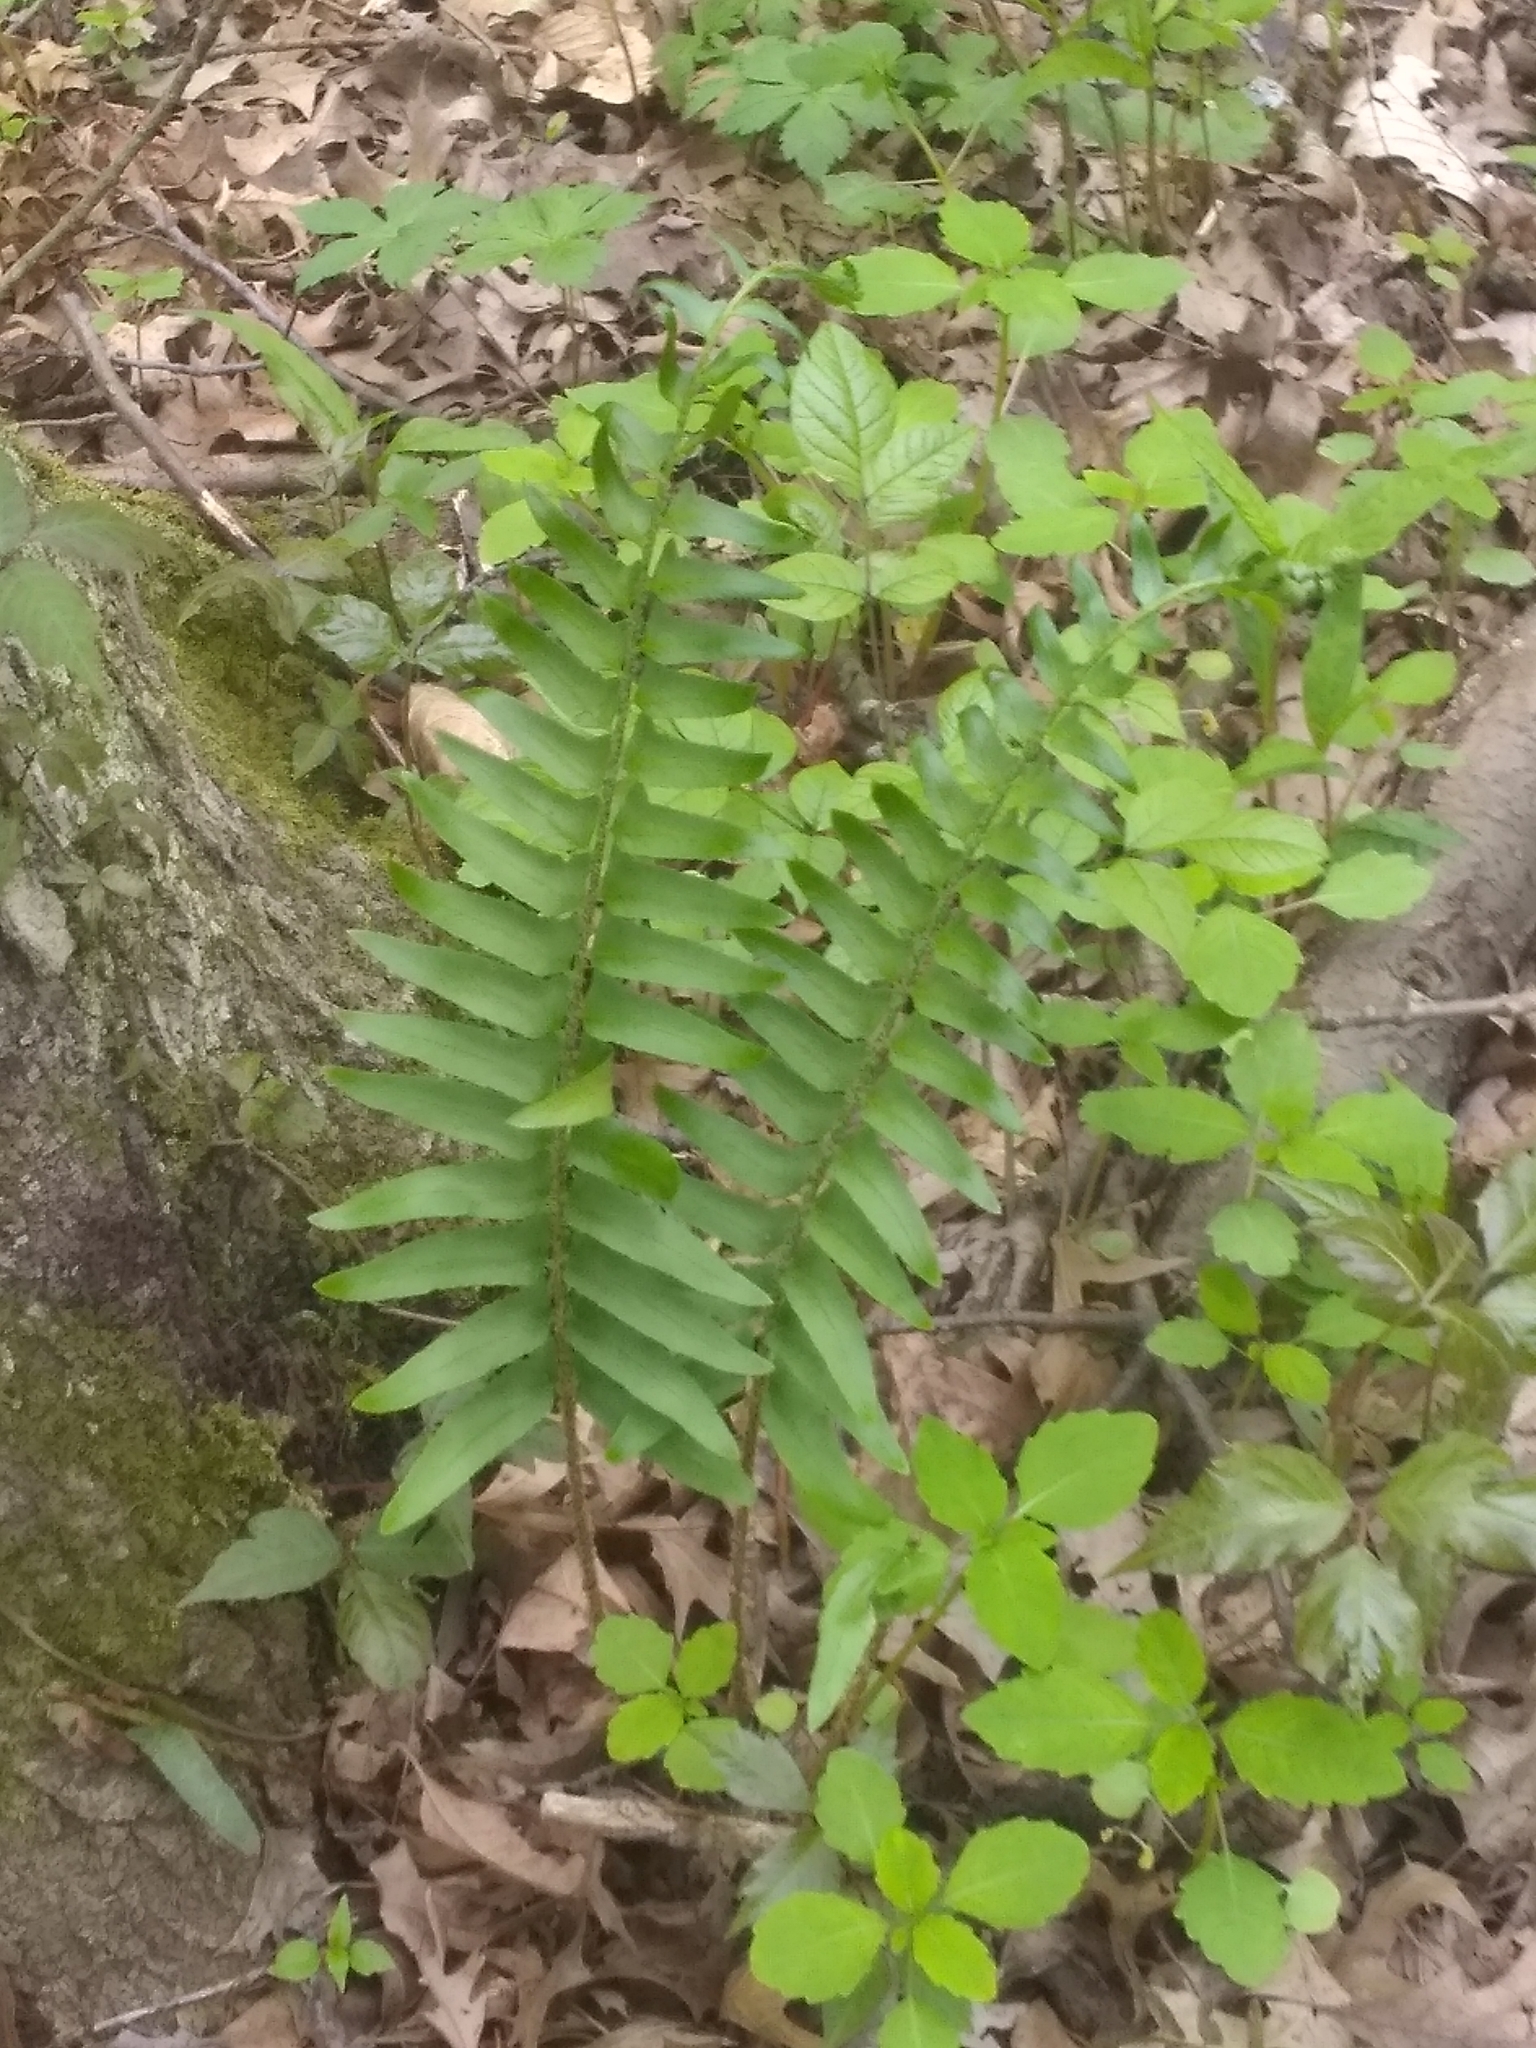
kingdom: Plantae
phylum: Tracheophyta
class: Polypodiopsida
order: Polypodiales
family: Dryopteridaceae
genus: Polystichum
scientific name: Polystichum acrostichoides
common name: Christmas fern
